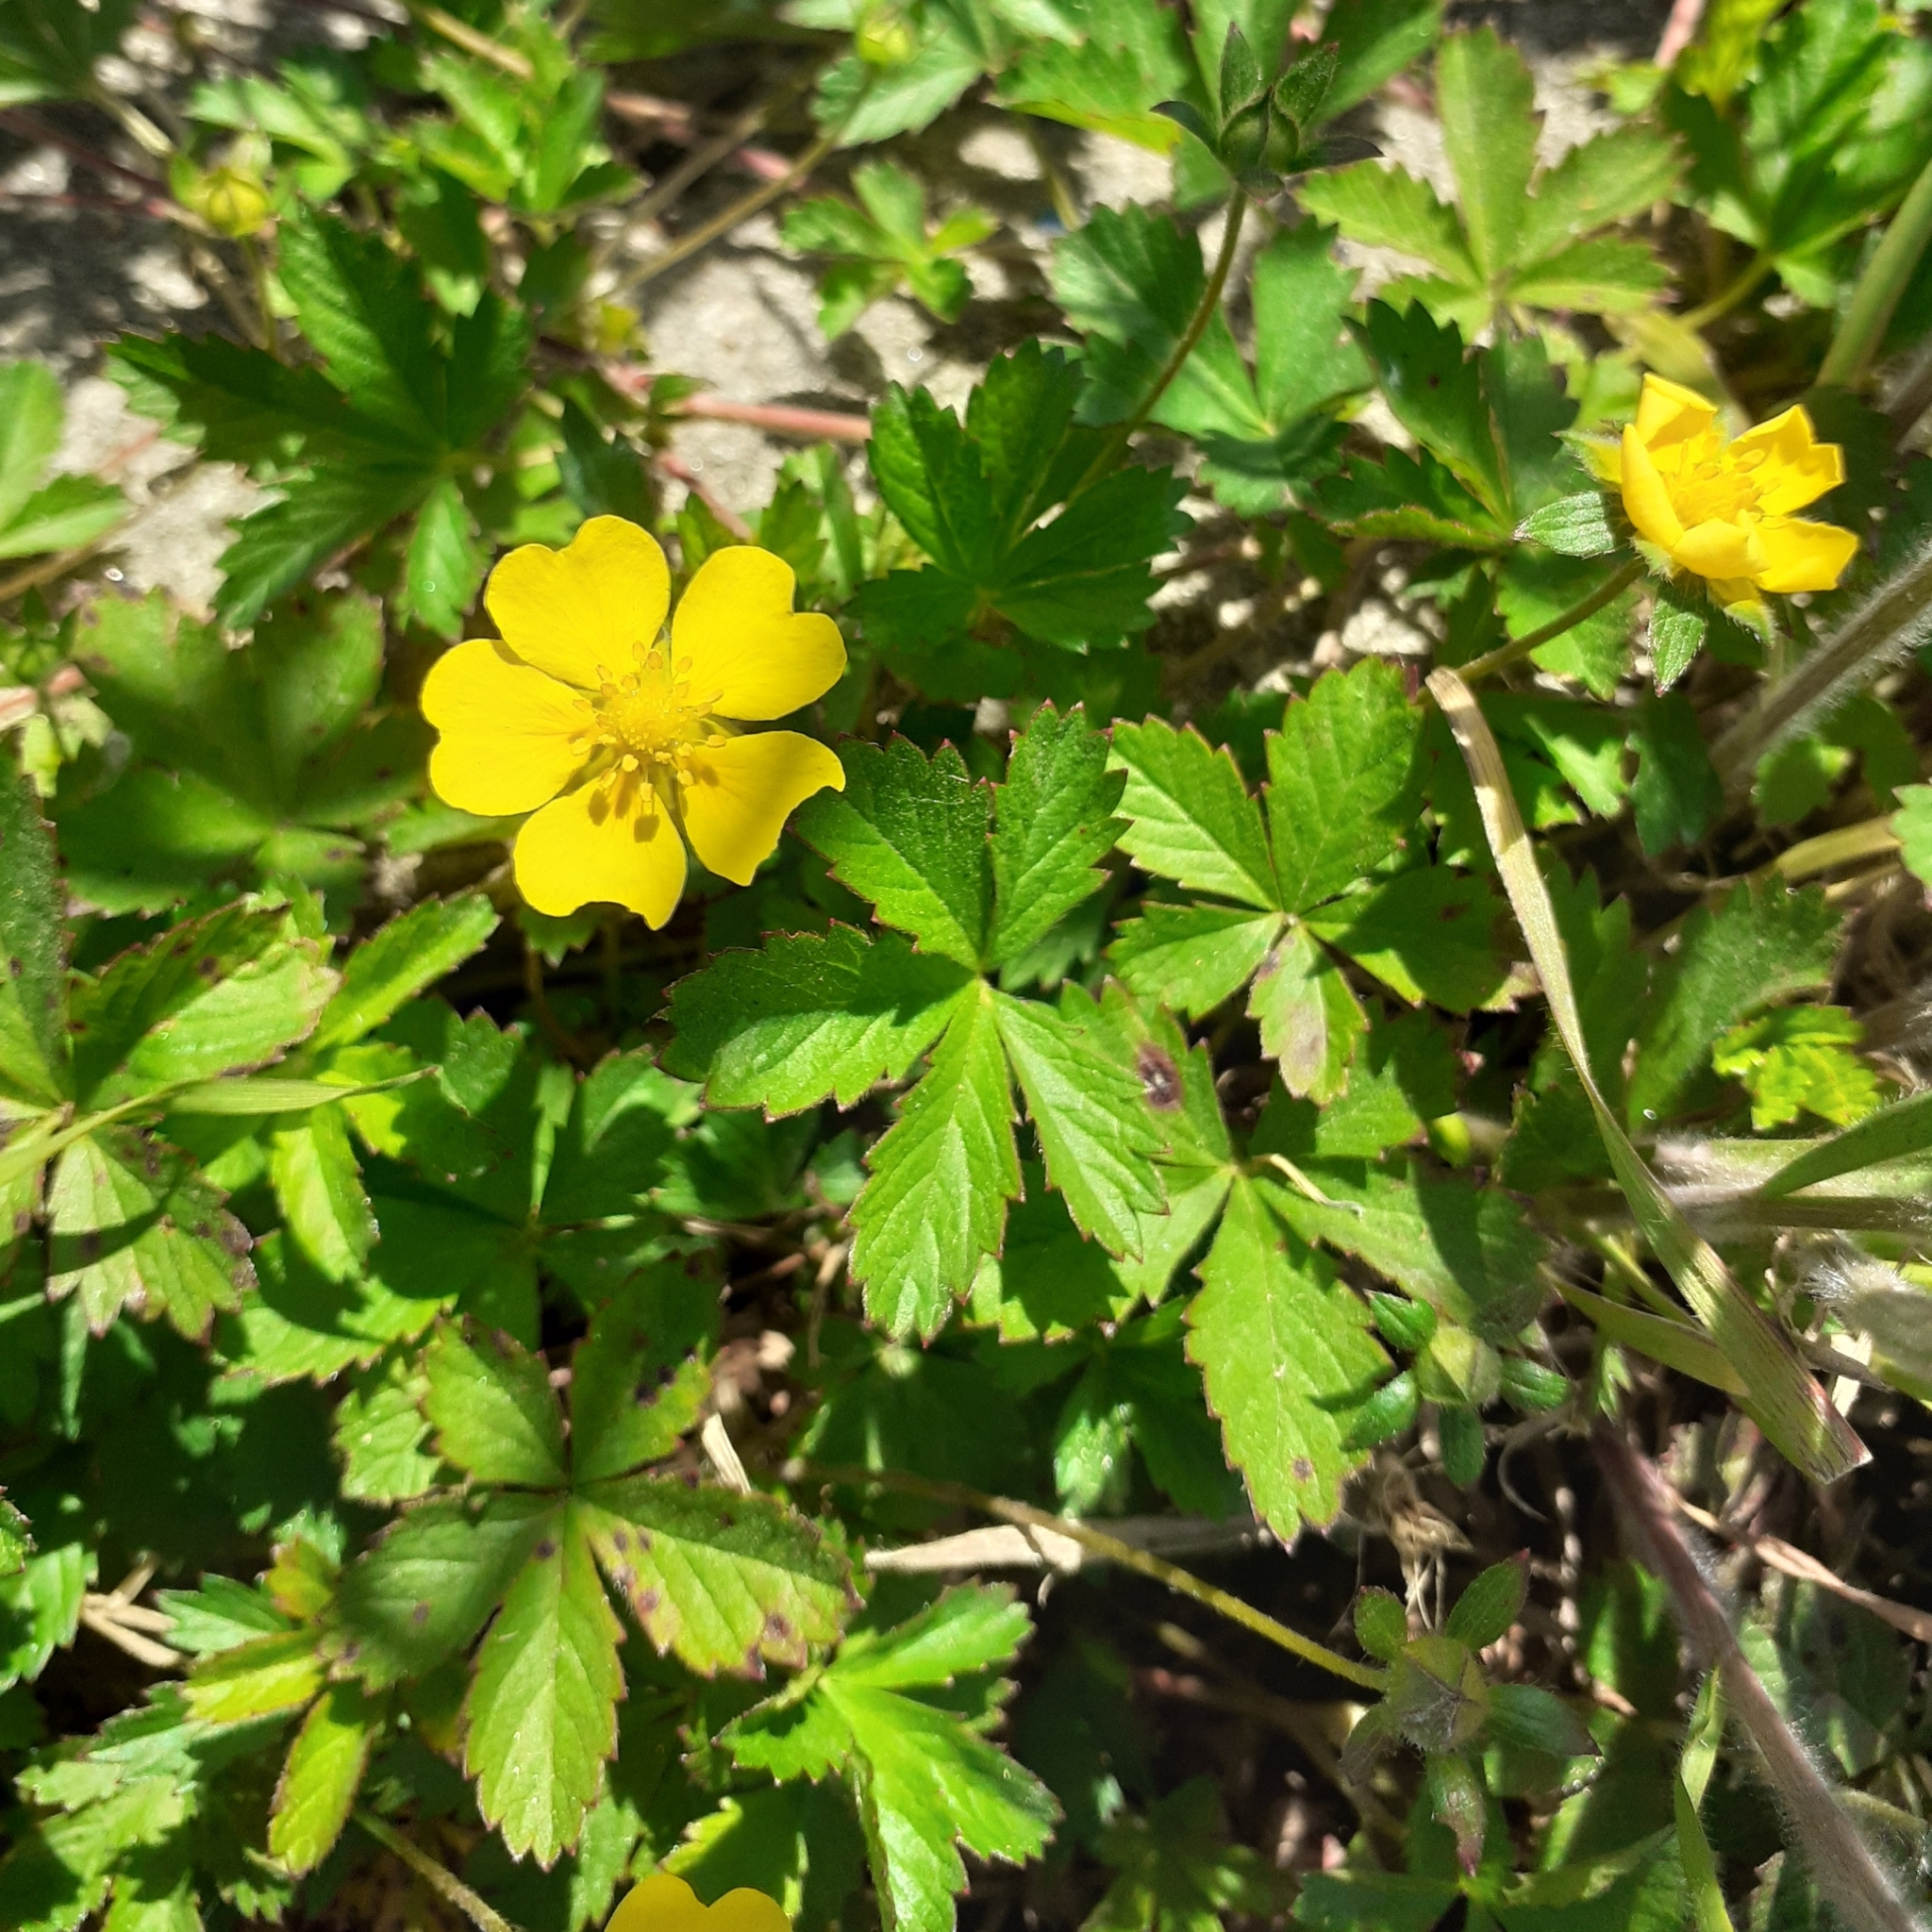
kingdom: Plantae
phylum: Tracheophyta
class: Magnoliopsida
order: Rosales
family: Rosaceae
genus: Potentilla
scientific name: Potentilla reptans
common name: Creeping cinquefoil
